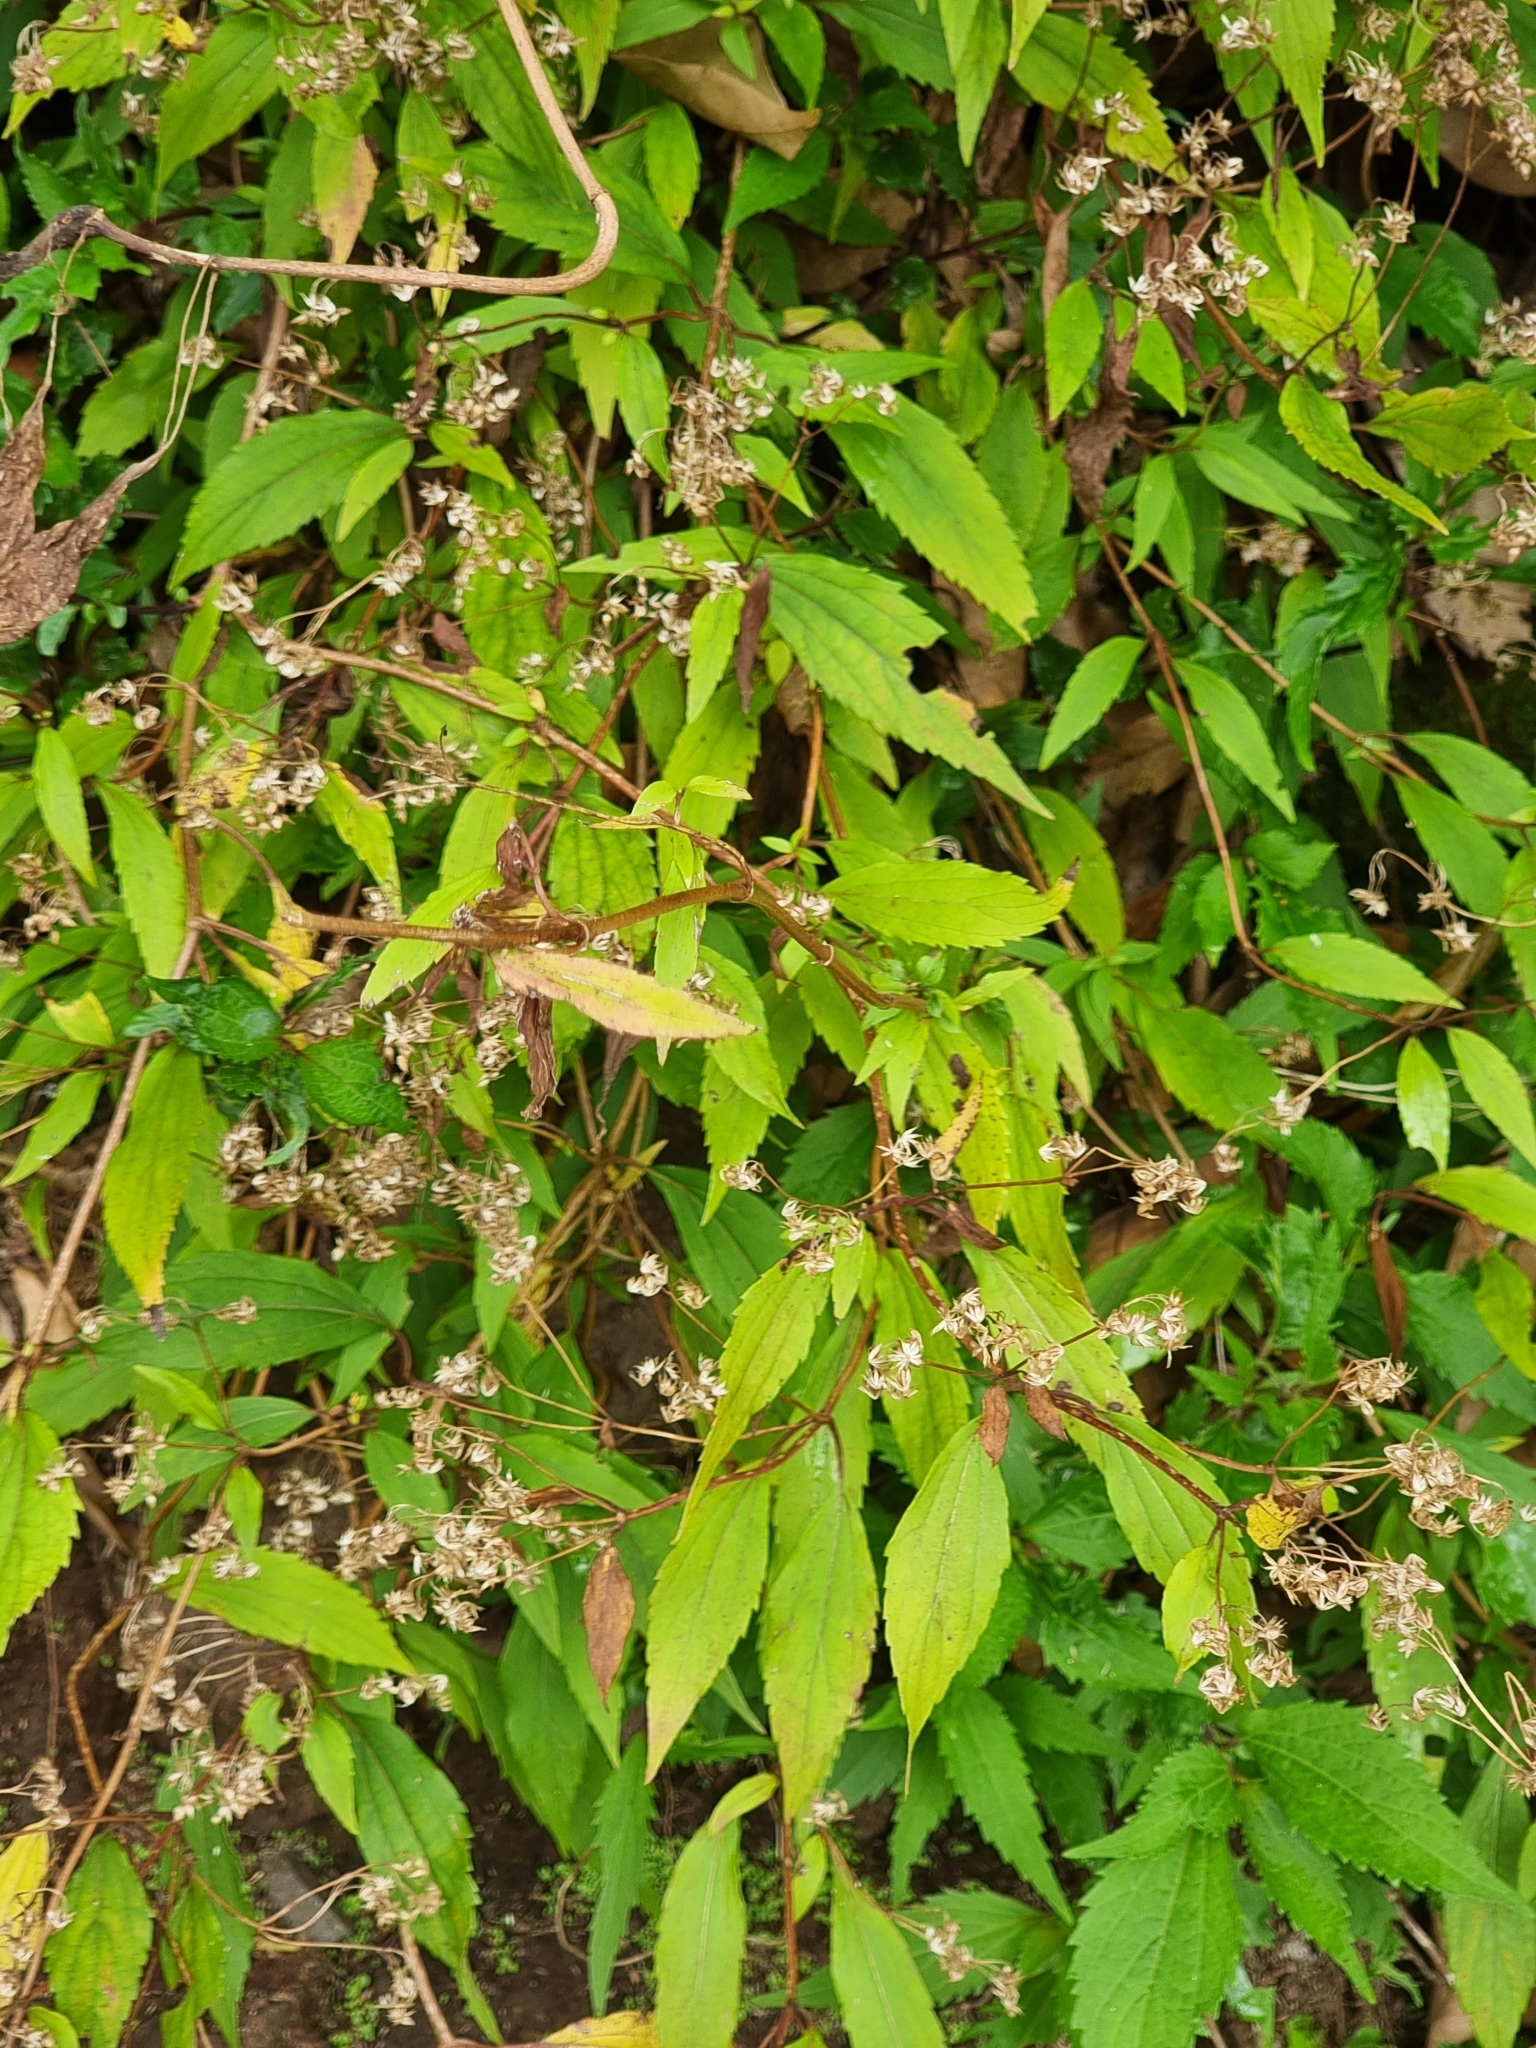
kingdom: Plantae
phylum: Tracheophyta
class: Magnoliopsida
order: Asterales
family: Asteraceae
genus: Ageratina
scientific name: Ageratina riparia
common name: Creeping croftonweed
